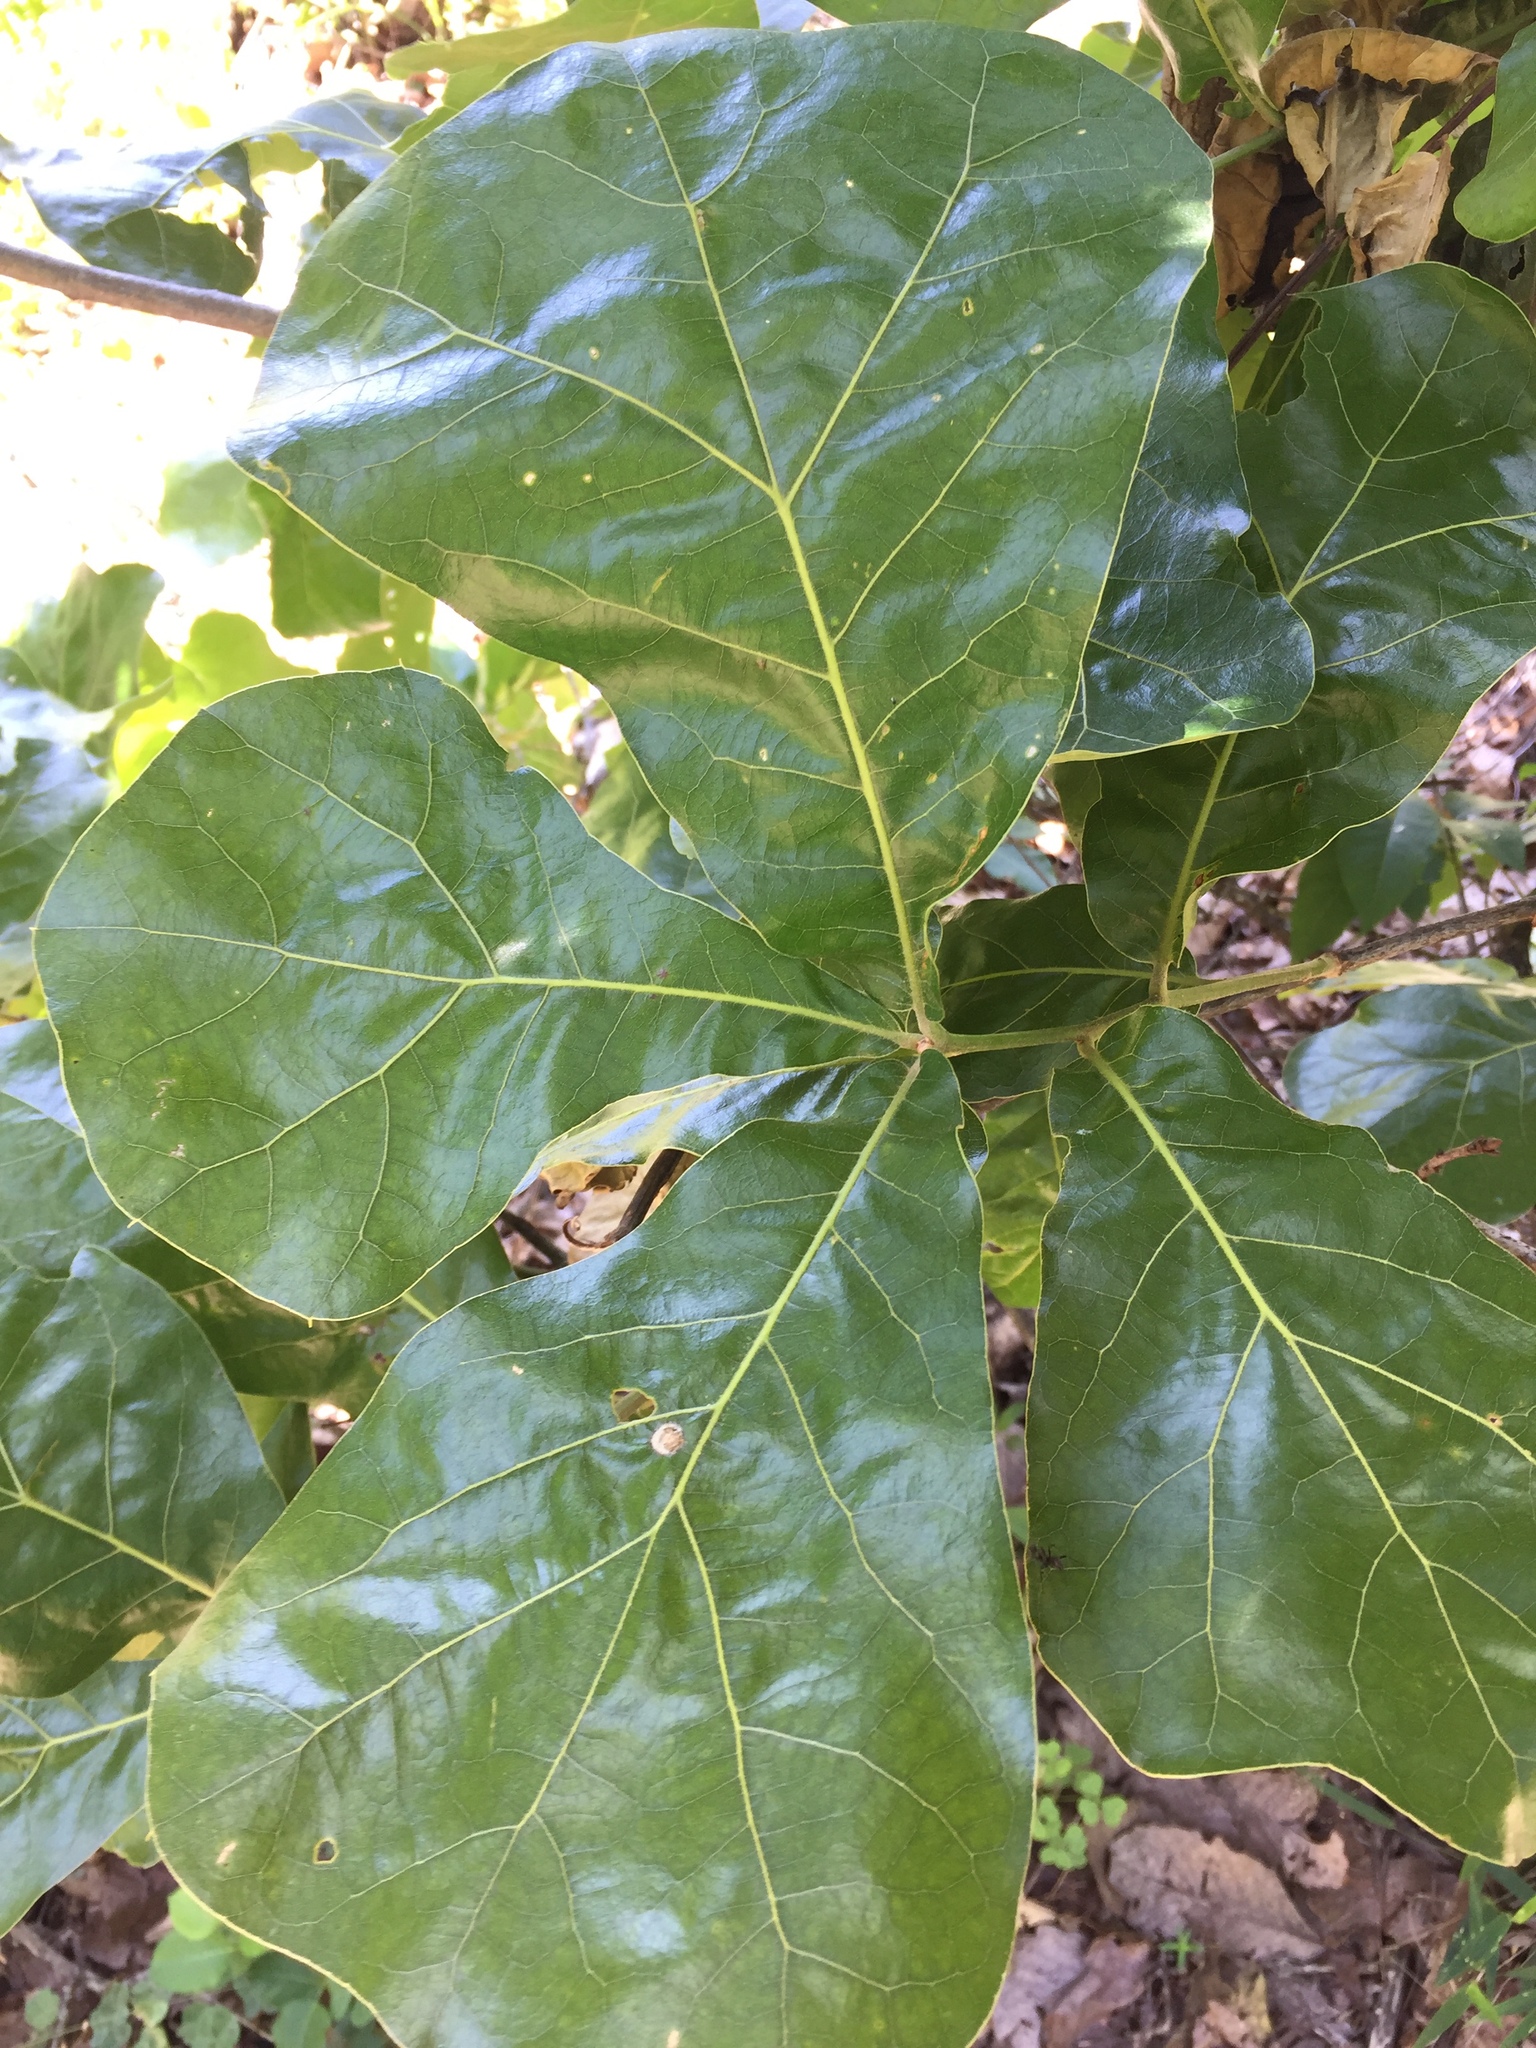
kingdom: Plantae
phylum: Tracheophyta
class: Magnoliopsida
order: Fagales
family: Fagaceae
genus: Quercus
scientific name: Quercus marilandica
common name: Blackjack oak
